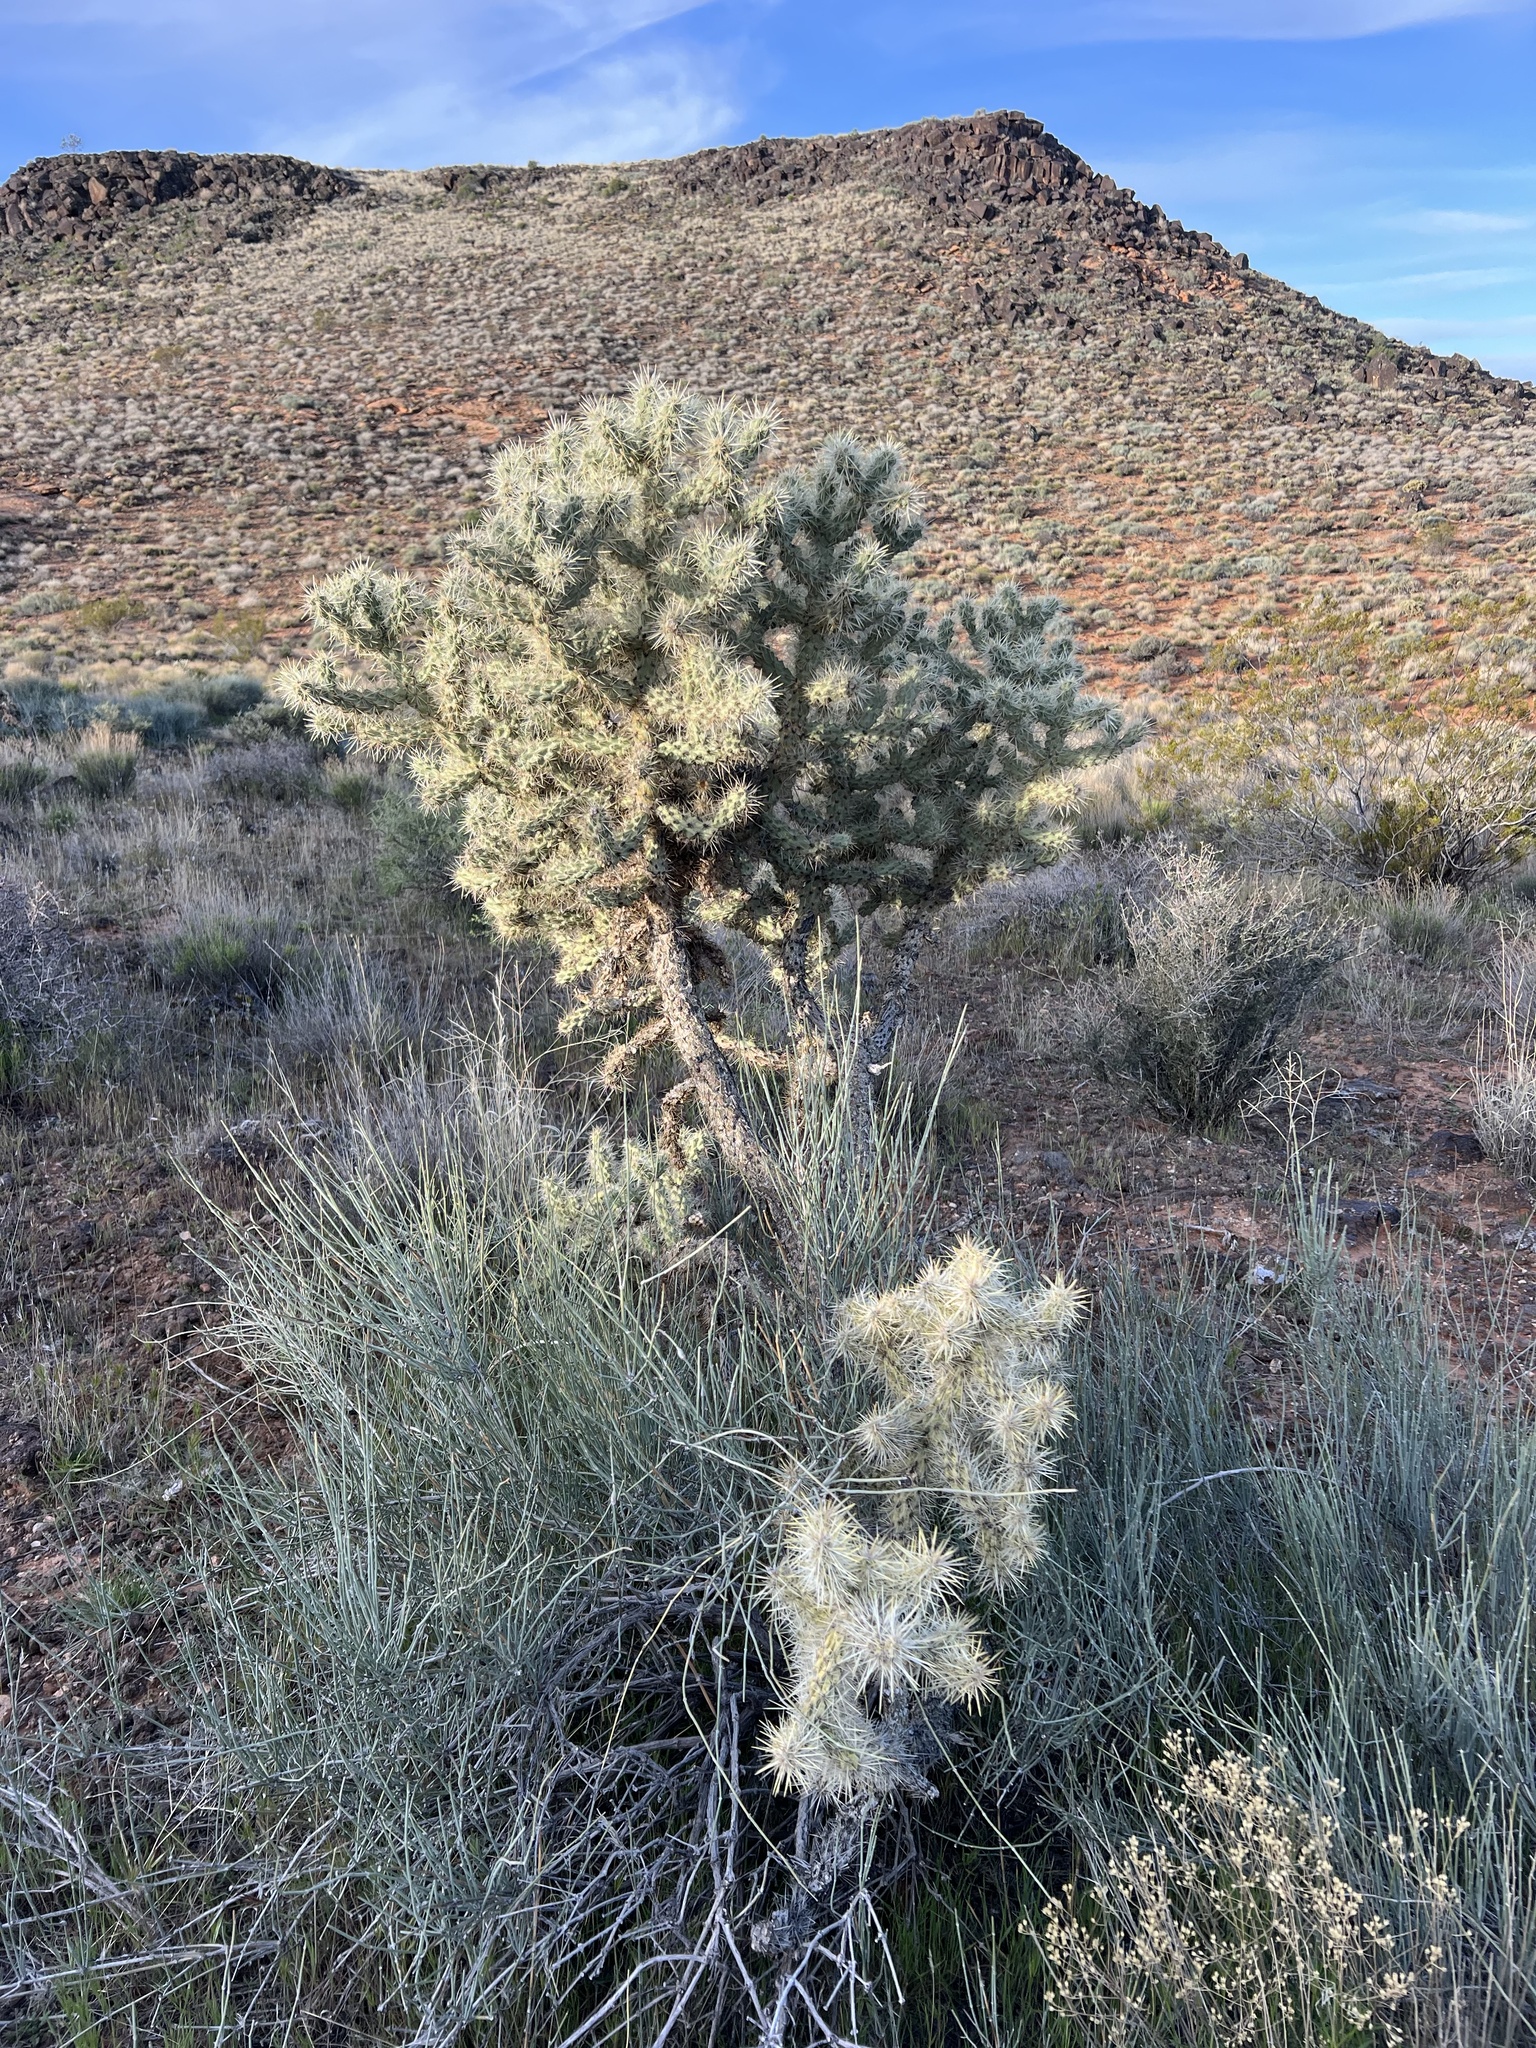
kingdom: Plantae
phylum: Tracheophyta
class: Magnoliopsida
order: Caryophyllales
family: Cactaceae
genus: Cylindropuntia
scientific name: Cylindropuntia echinocarpa
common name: Ground cholla
